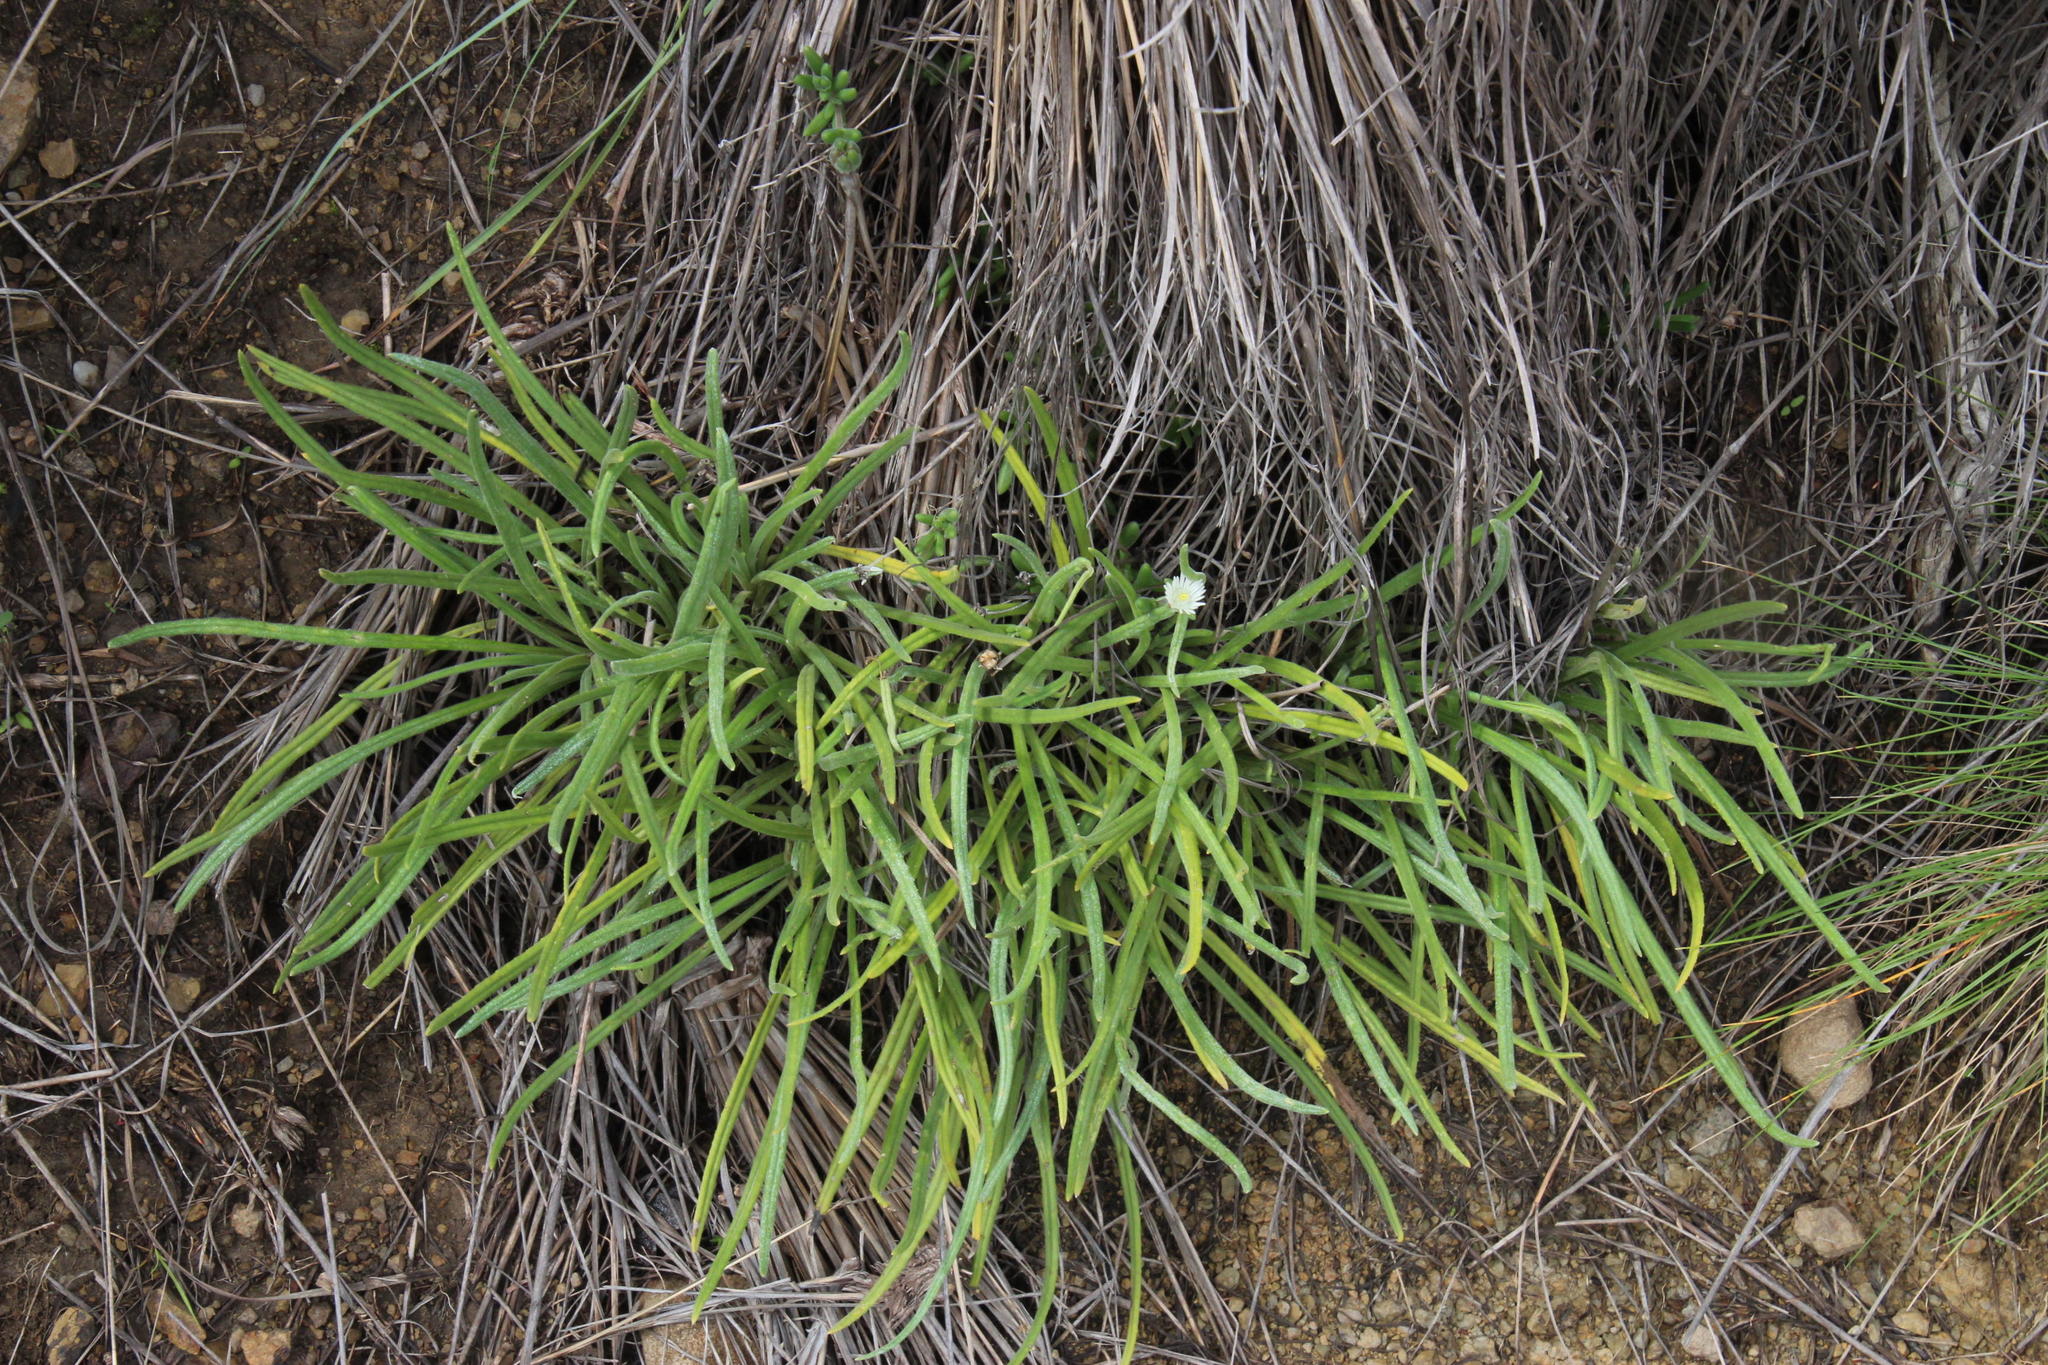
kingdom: Plantae
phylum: Tracheophyta
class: Magnoliopsida
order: Caryophyllales
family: Aizoaceae
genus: Delosperma
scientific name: Delosperma brevisepalum
